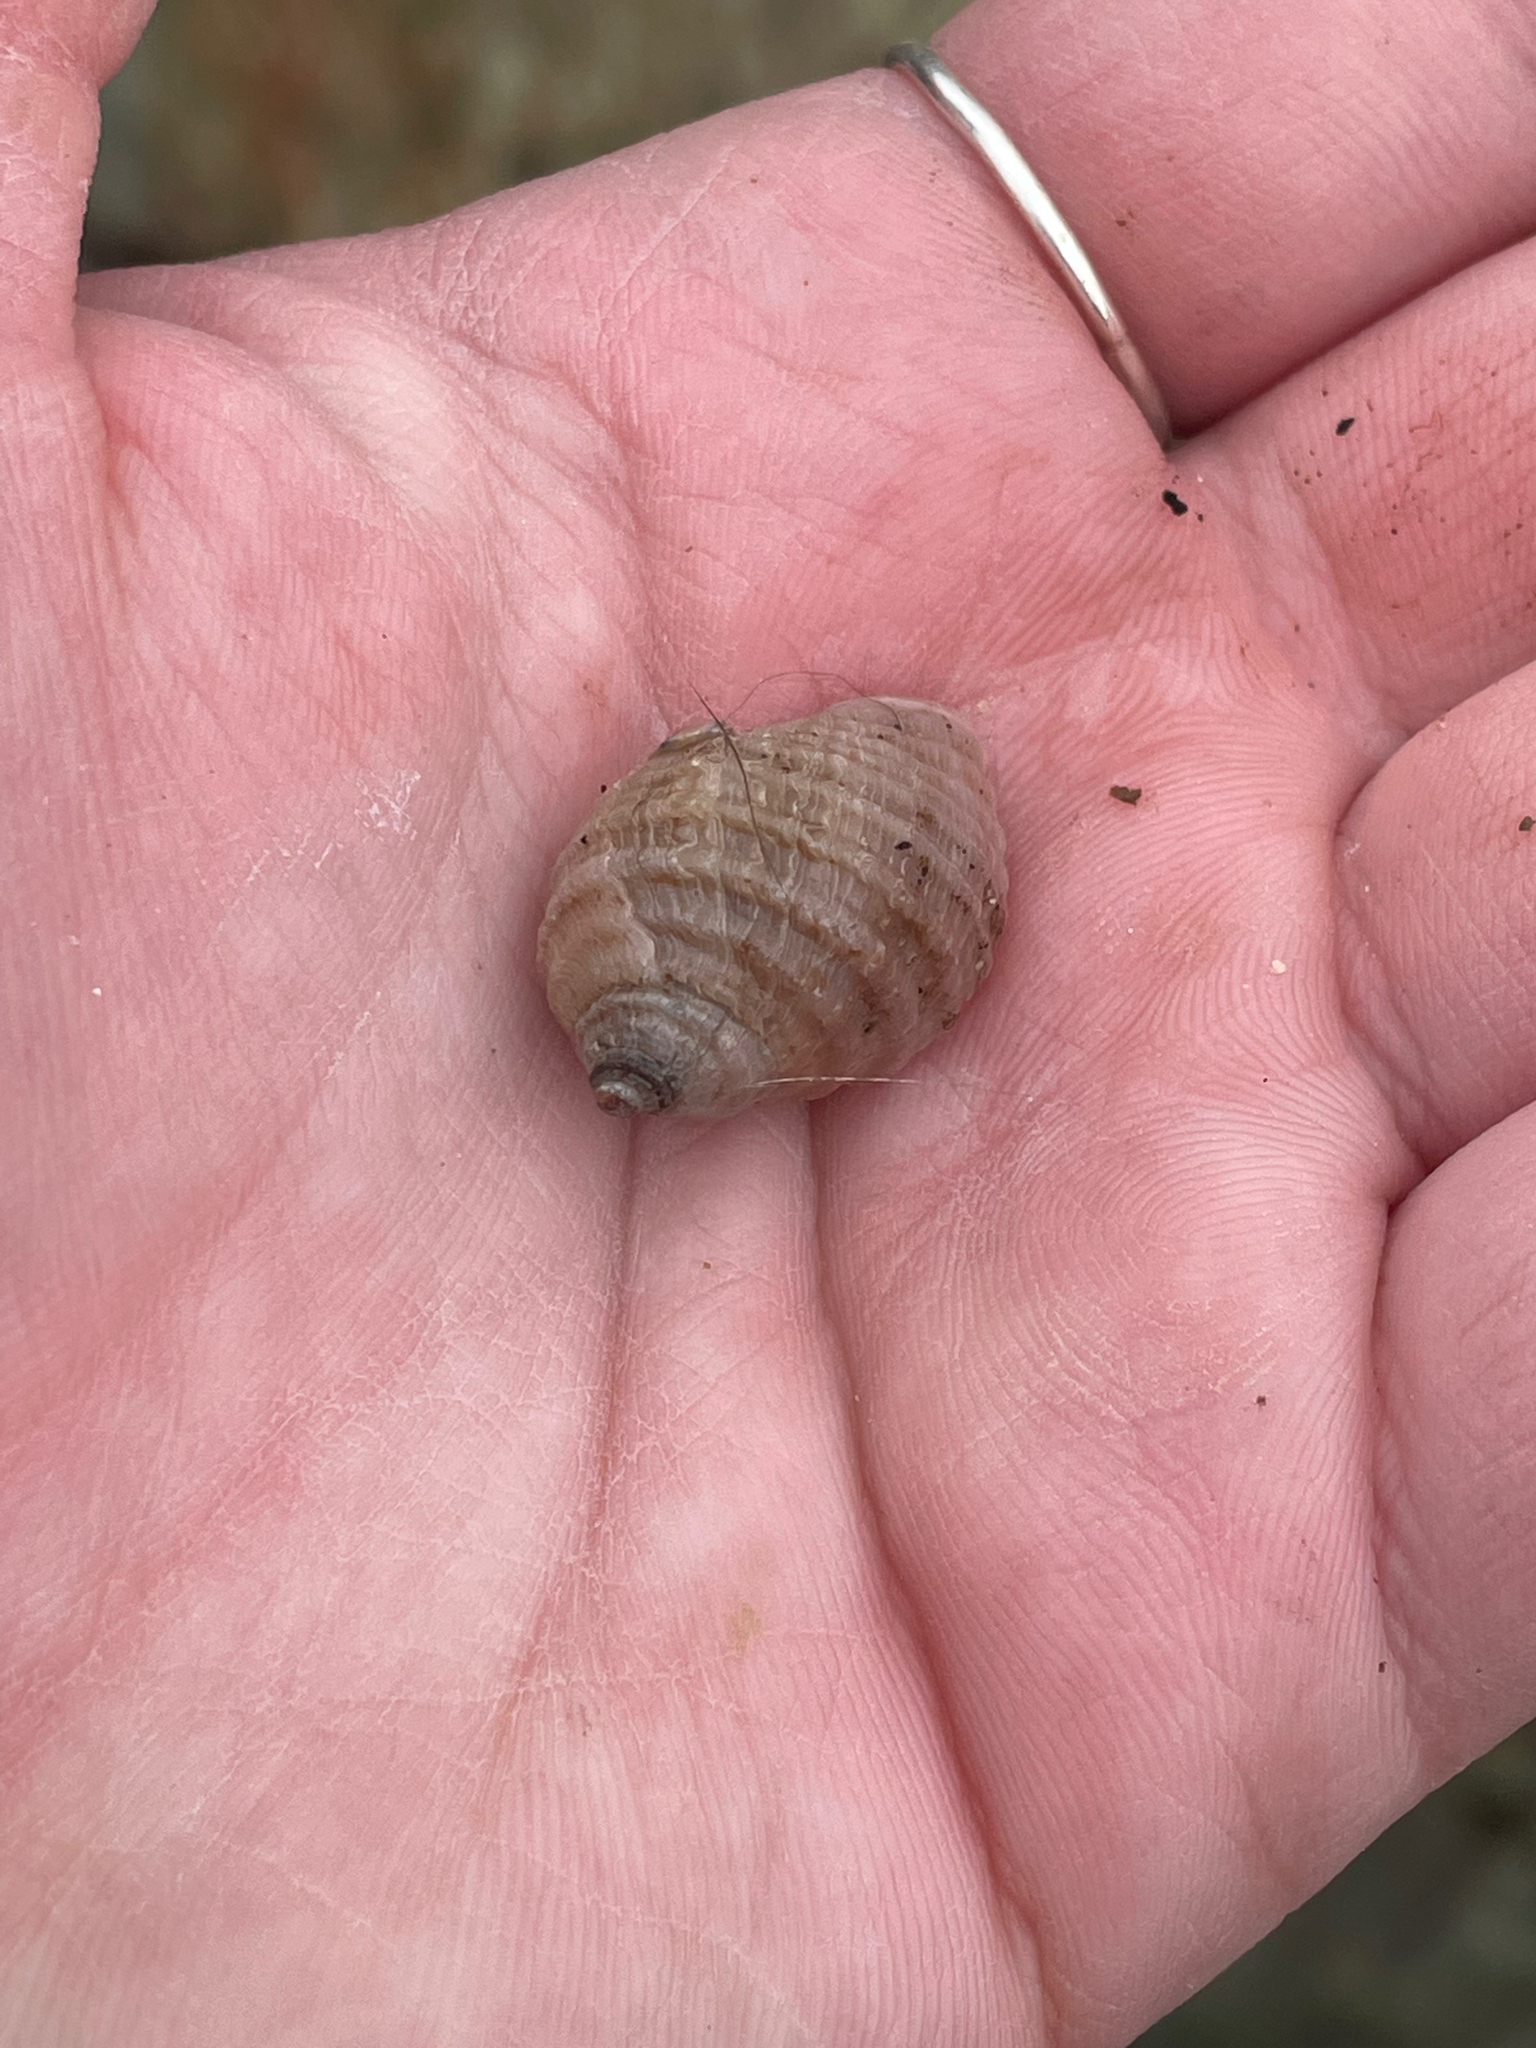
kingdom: Animalia
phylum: Mollusca
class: Gastropoda
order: Neogastropoda
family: Muricidae
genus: Nucella
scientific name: Nucella lapillus
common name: Dog whelk
